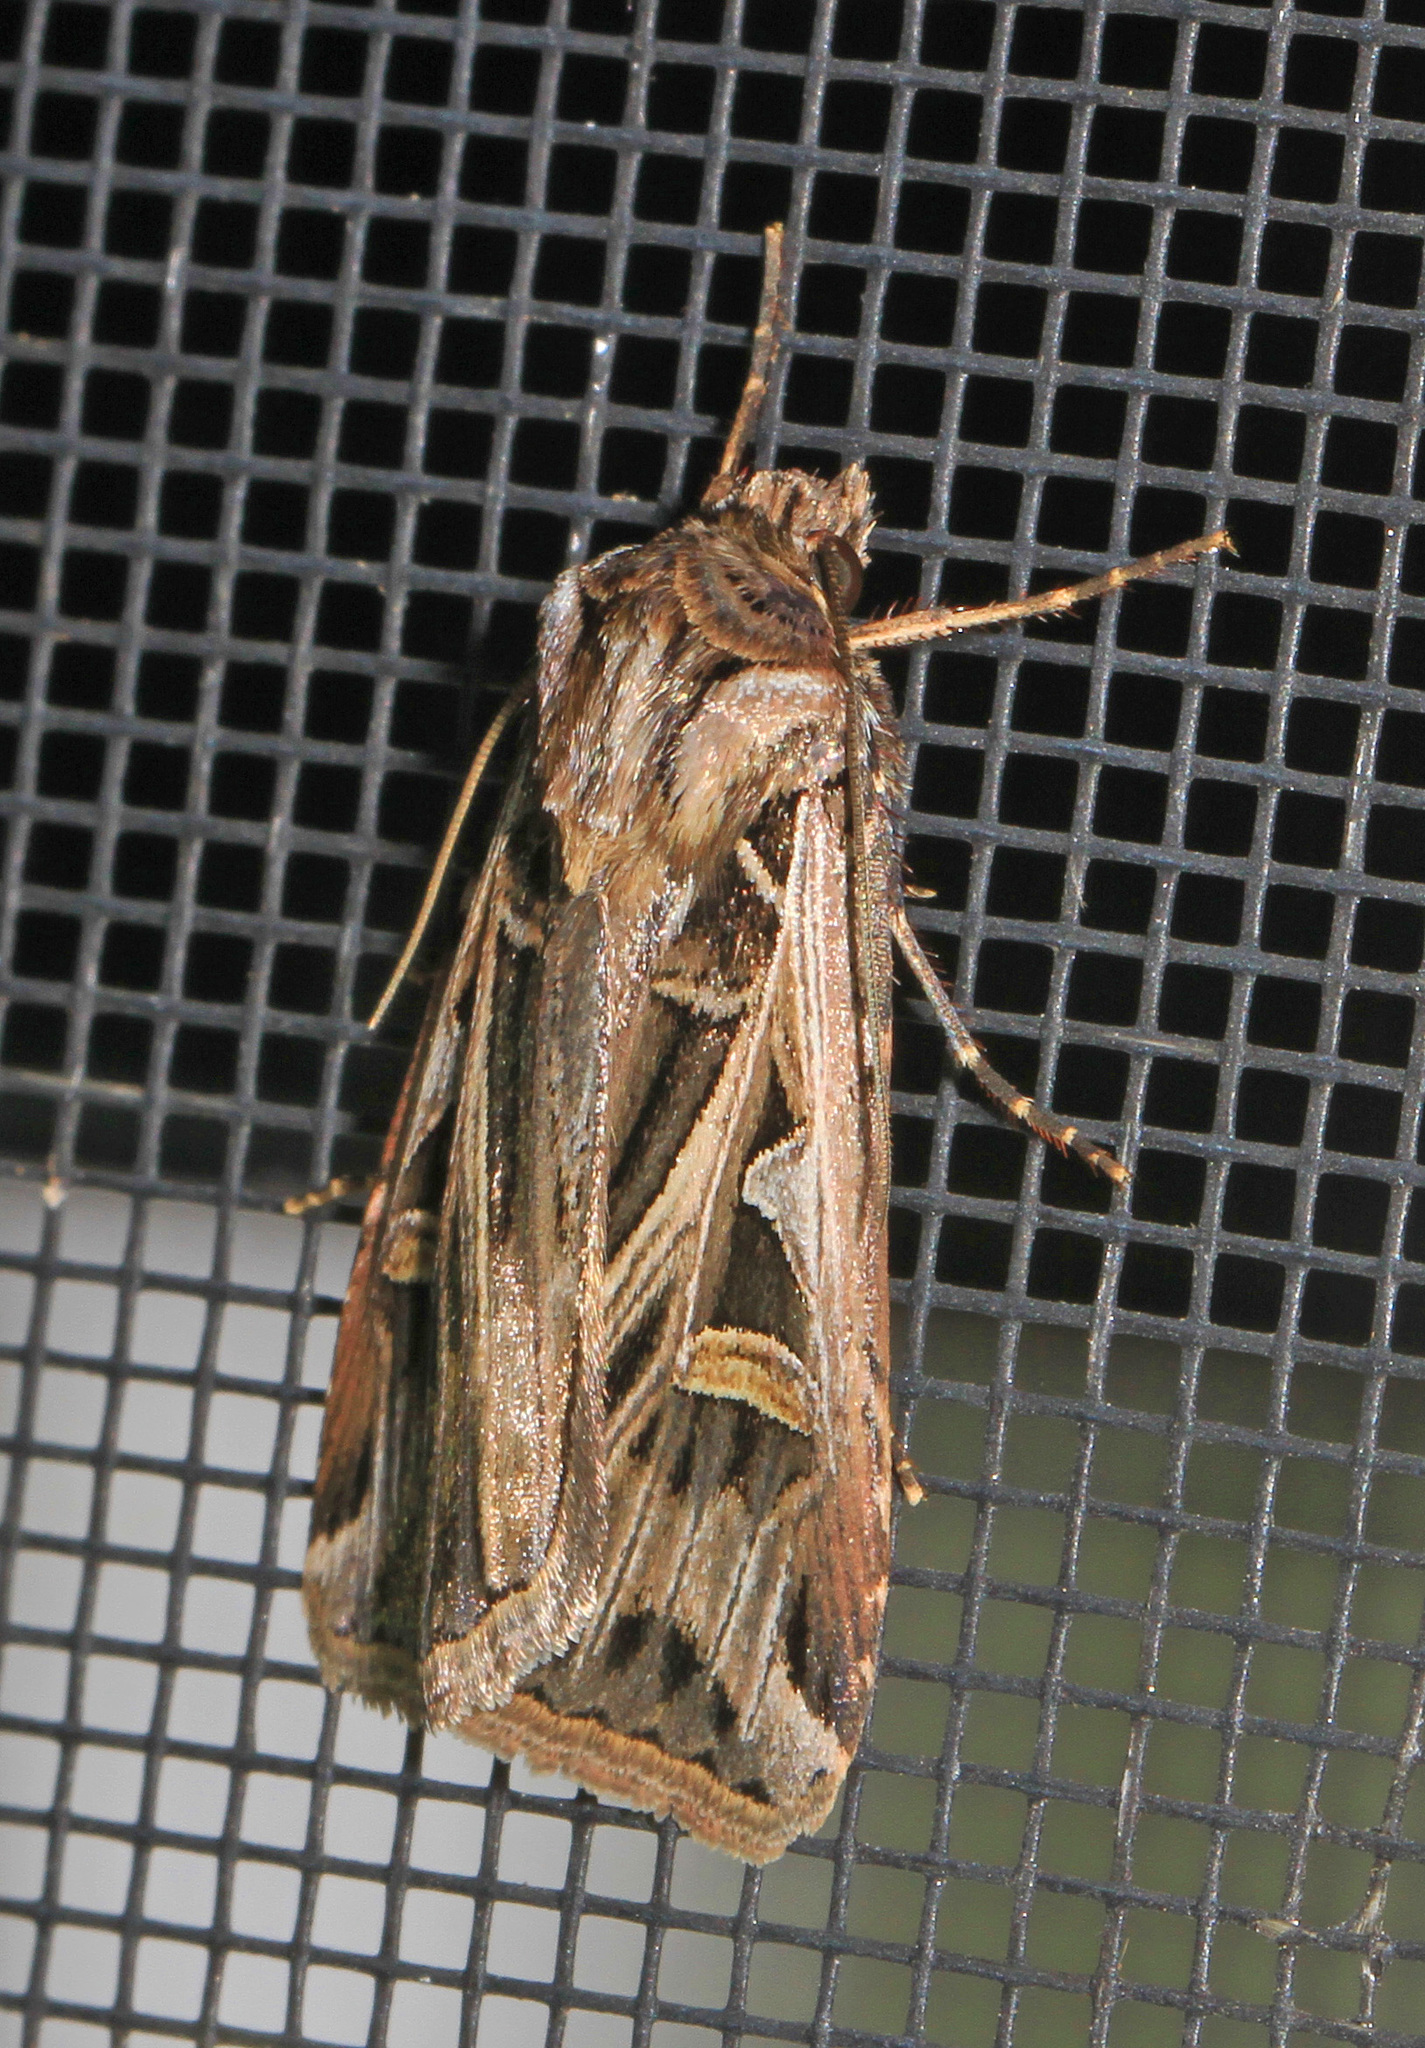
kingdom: Animalia
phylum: Arthropoda
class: Insecta
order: Lepidoptera
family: Noctuidae
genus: Feltia
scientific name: Feltia jaculifera
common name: Dingy cutworm moth
